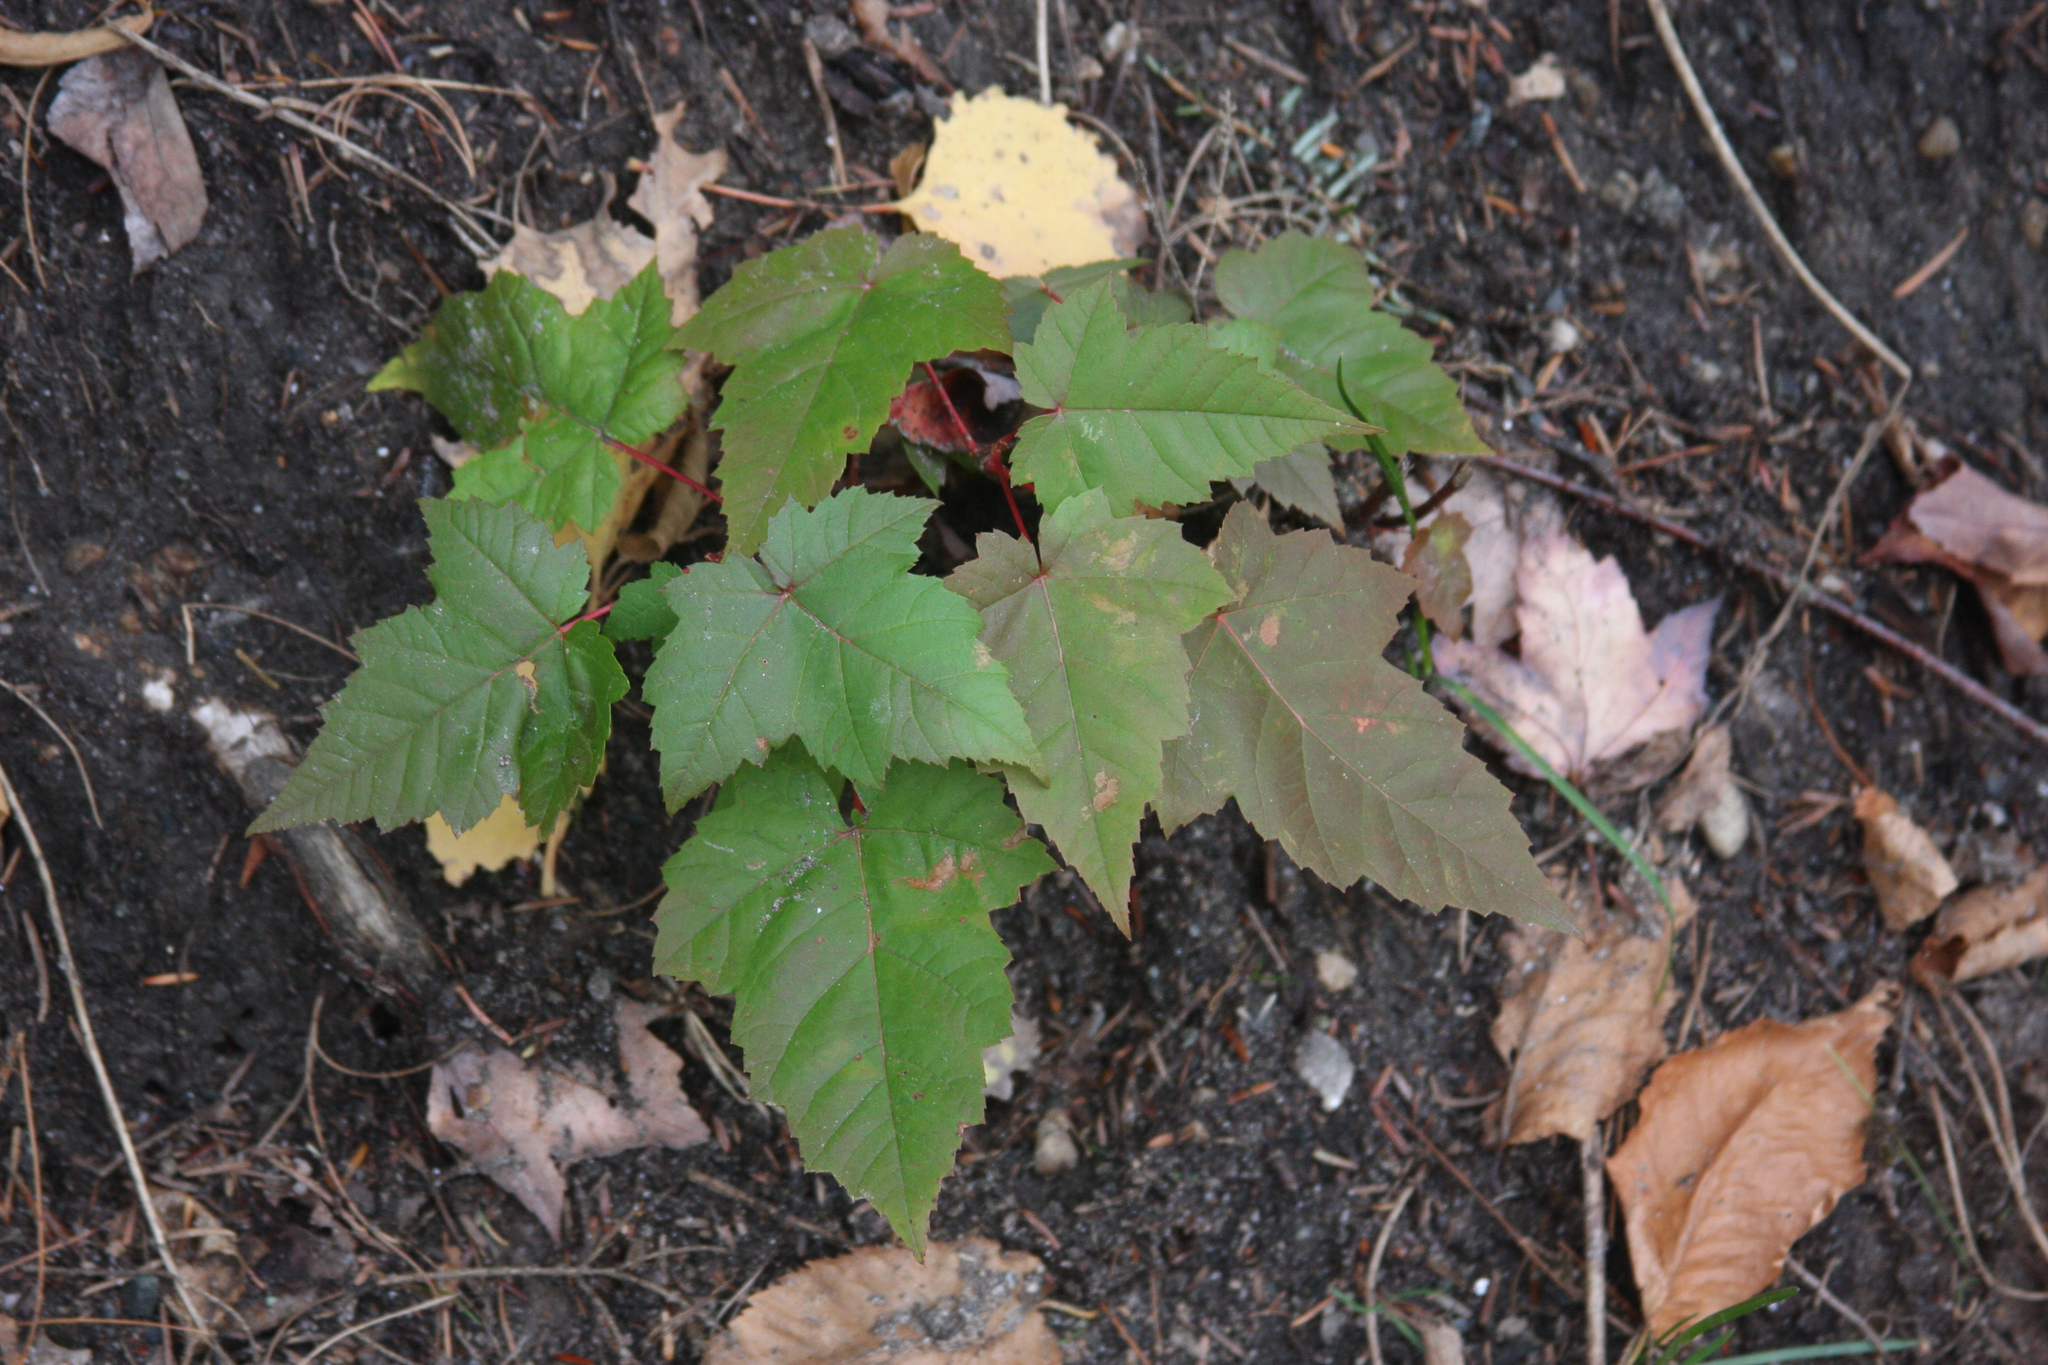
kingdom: Plantae
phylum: Tracheophyta
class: Magnoliopsida
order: Sapindales
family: Sapindaceae
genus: Acer
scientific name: Acer rubrum
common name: Red maple
